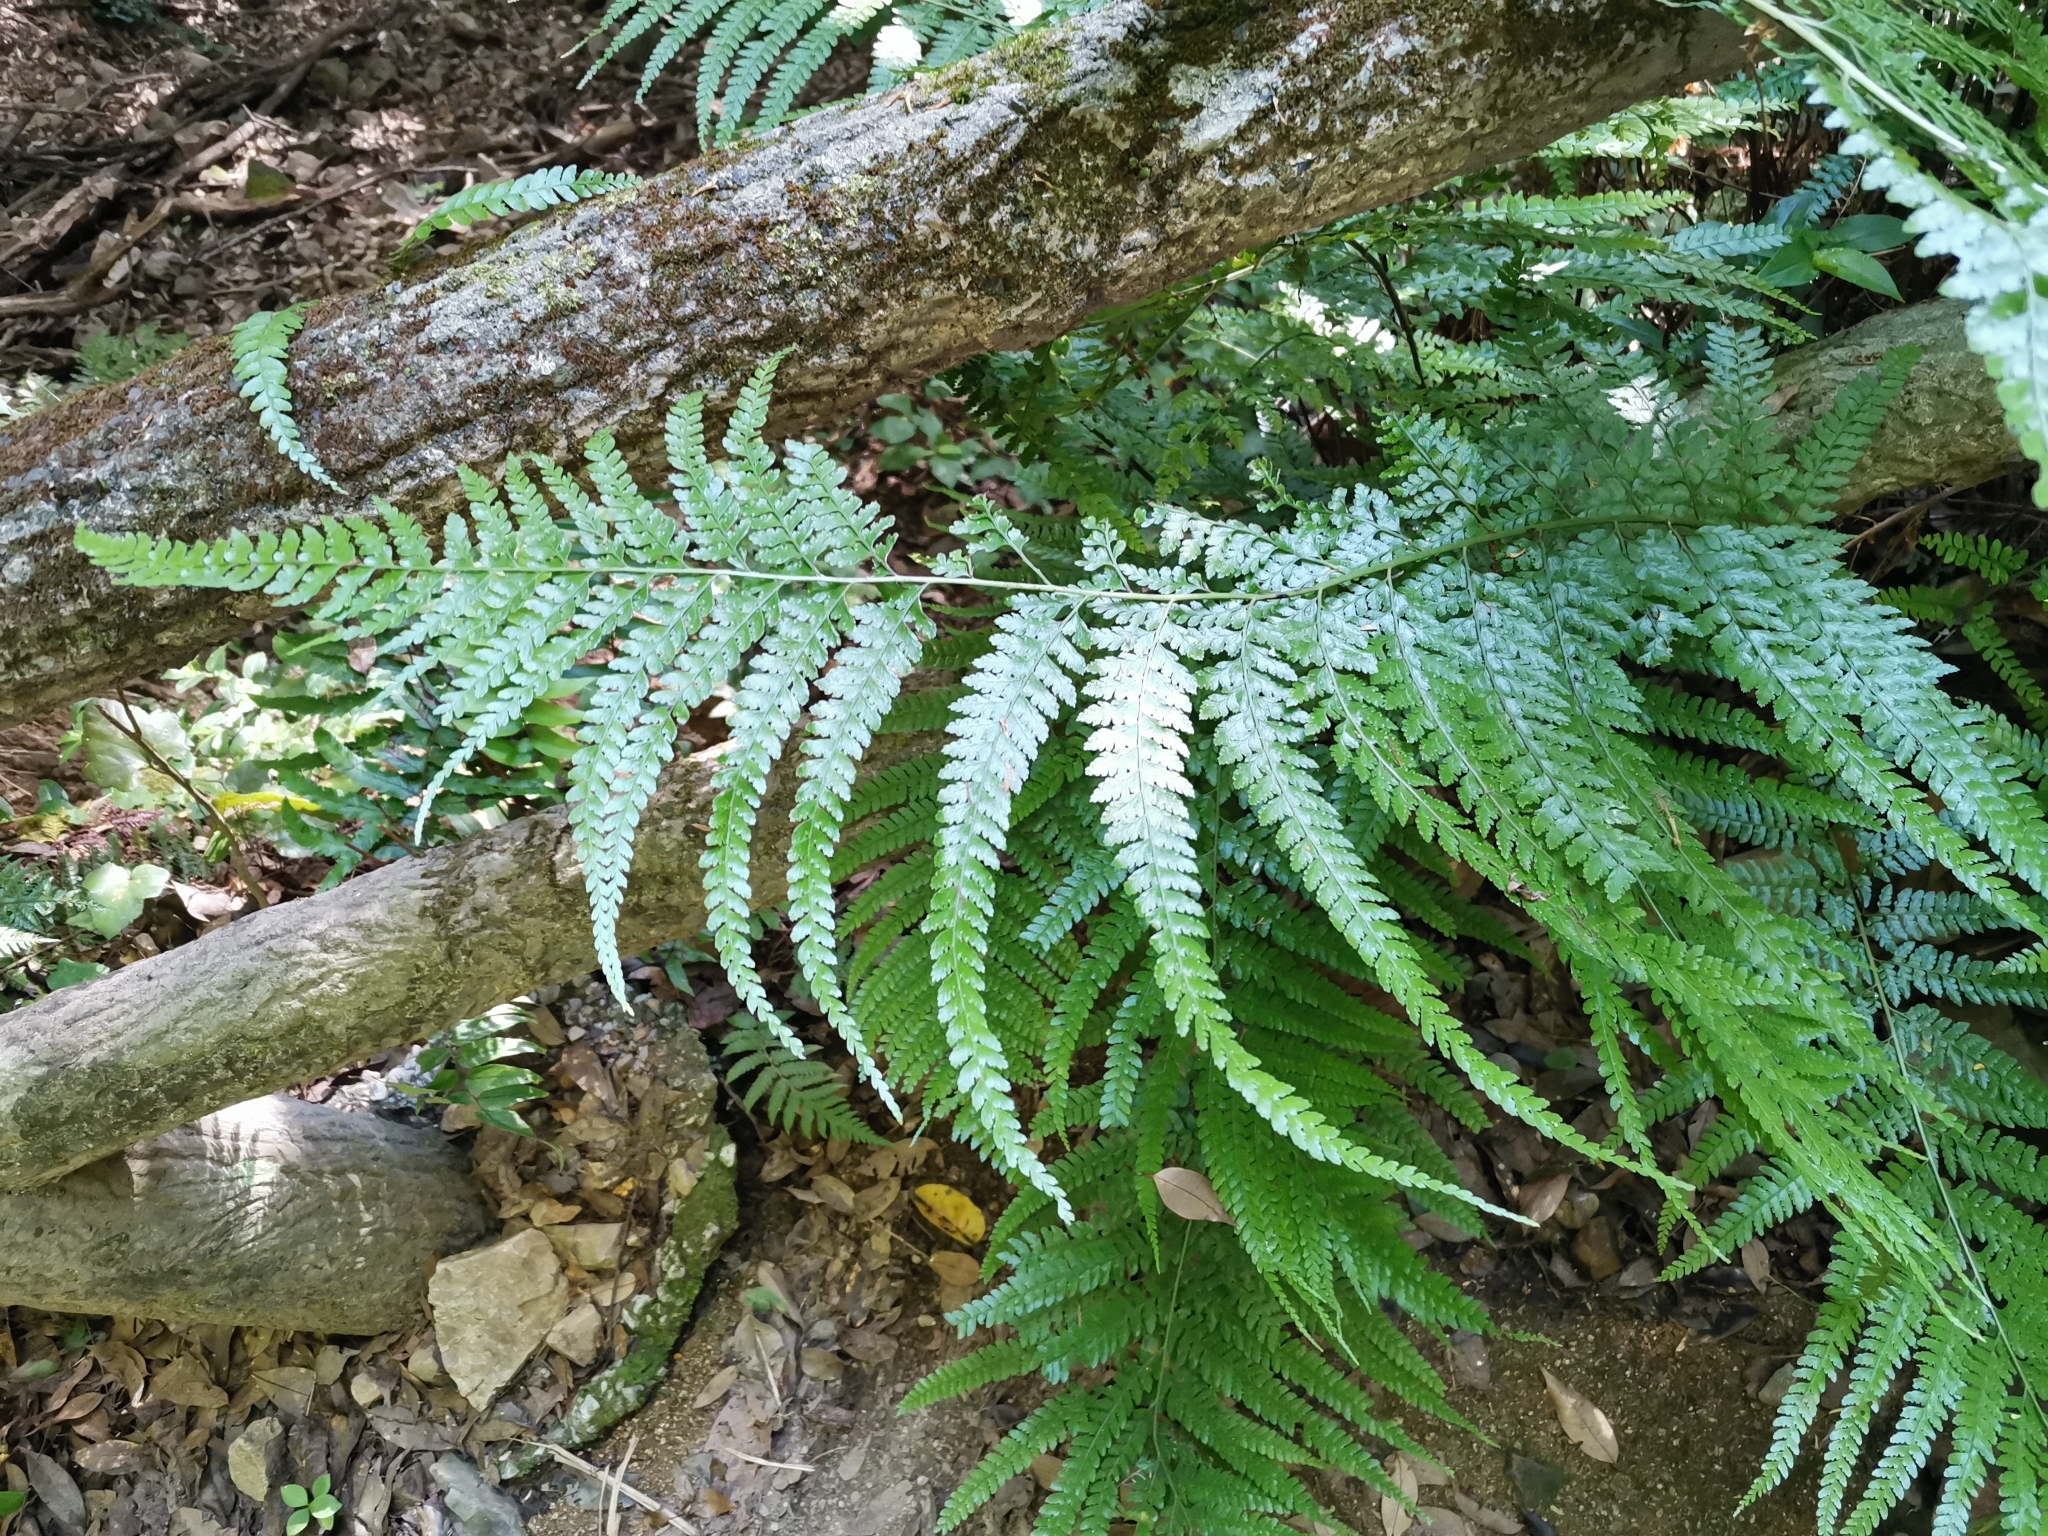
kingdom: Plantae
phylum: Tracheophyta
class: Polypodiopsida
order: Polypodiales
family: Dennstaedtiaceae
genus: Microlepia
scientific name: Microlepia strigosa
